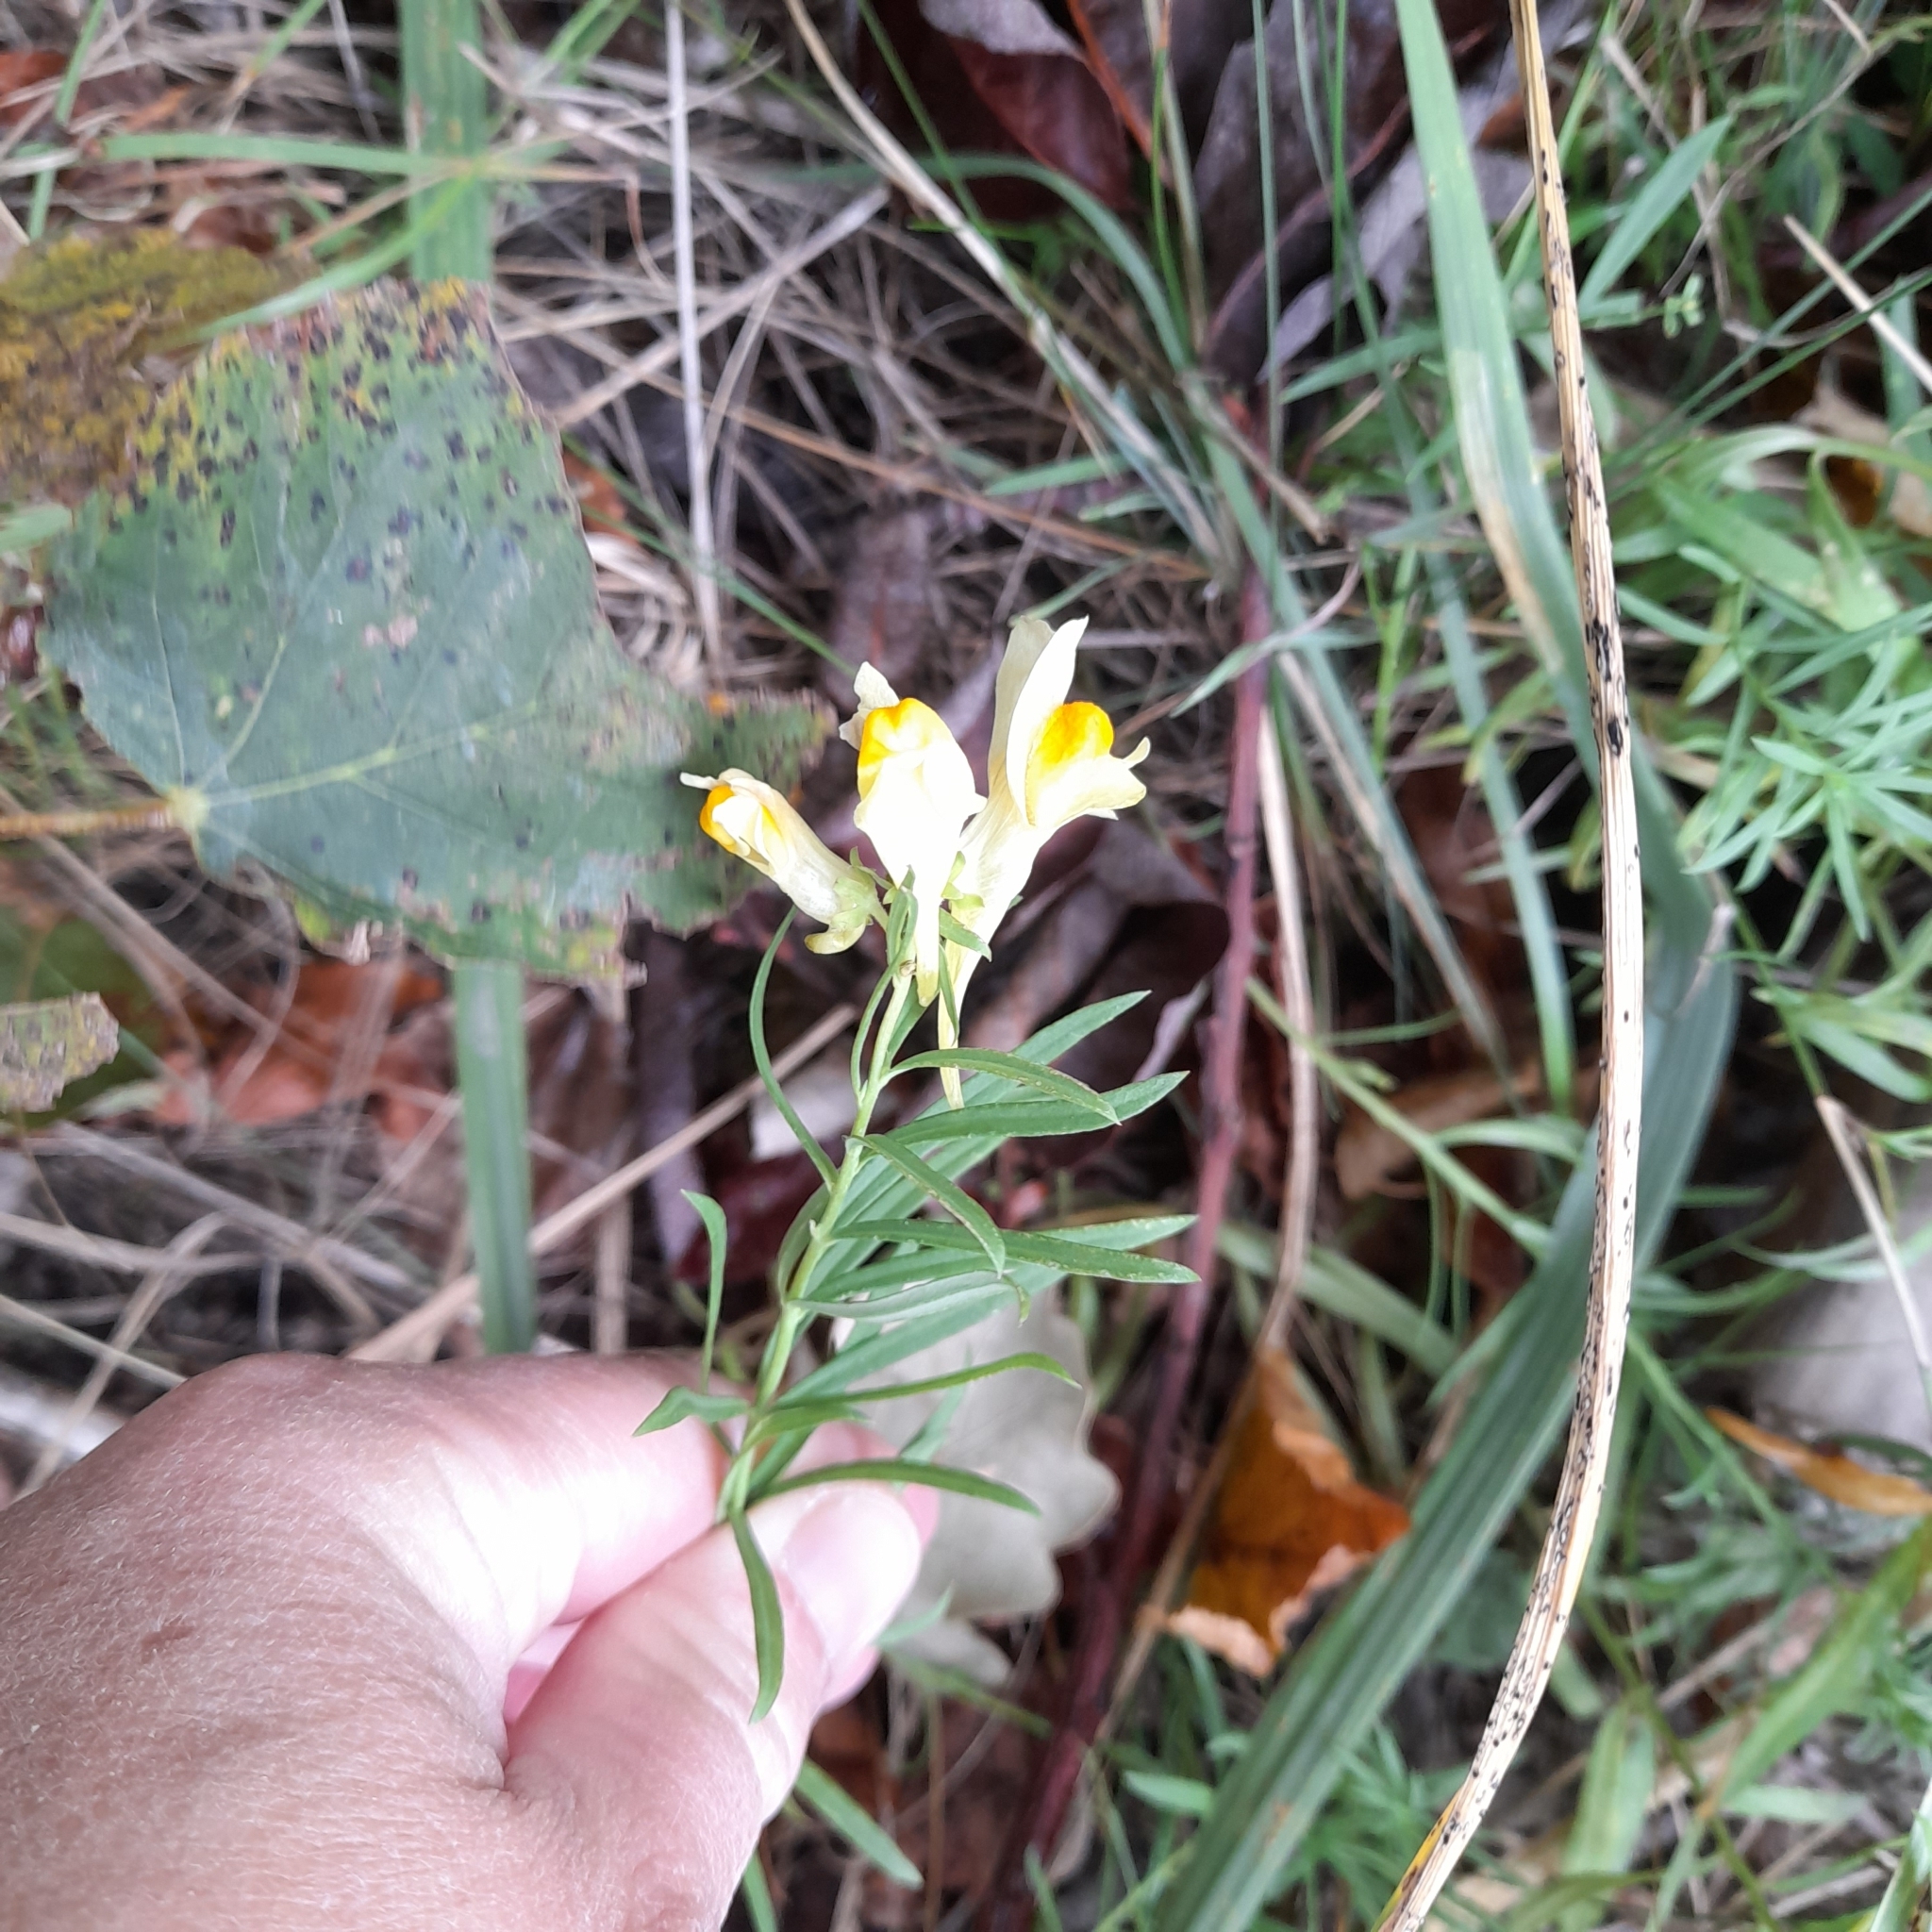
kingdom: Plantae
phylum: Tracheophyta
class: Magnoliopsida
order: Lamiales
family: Plantaginaceae
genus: Linaria
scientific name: Linaria vulgaris
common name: Butter and eggs
